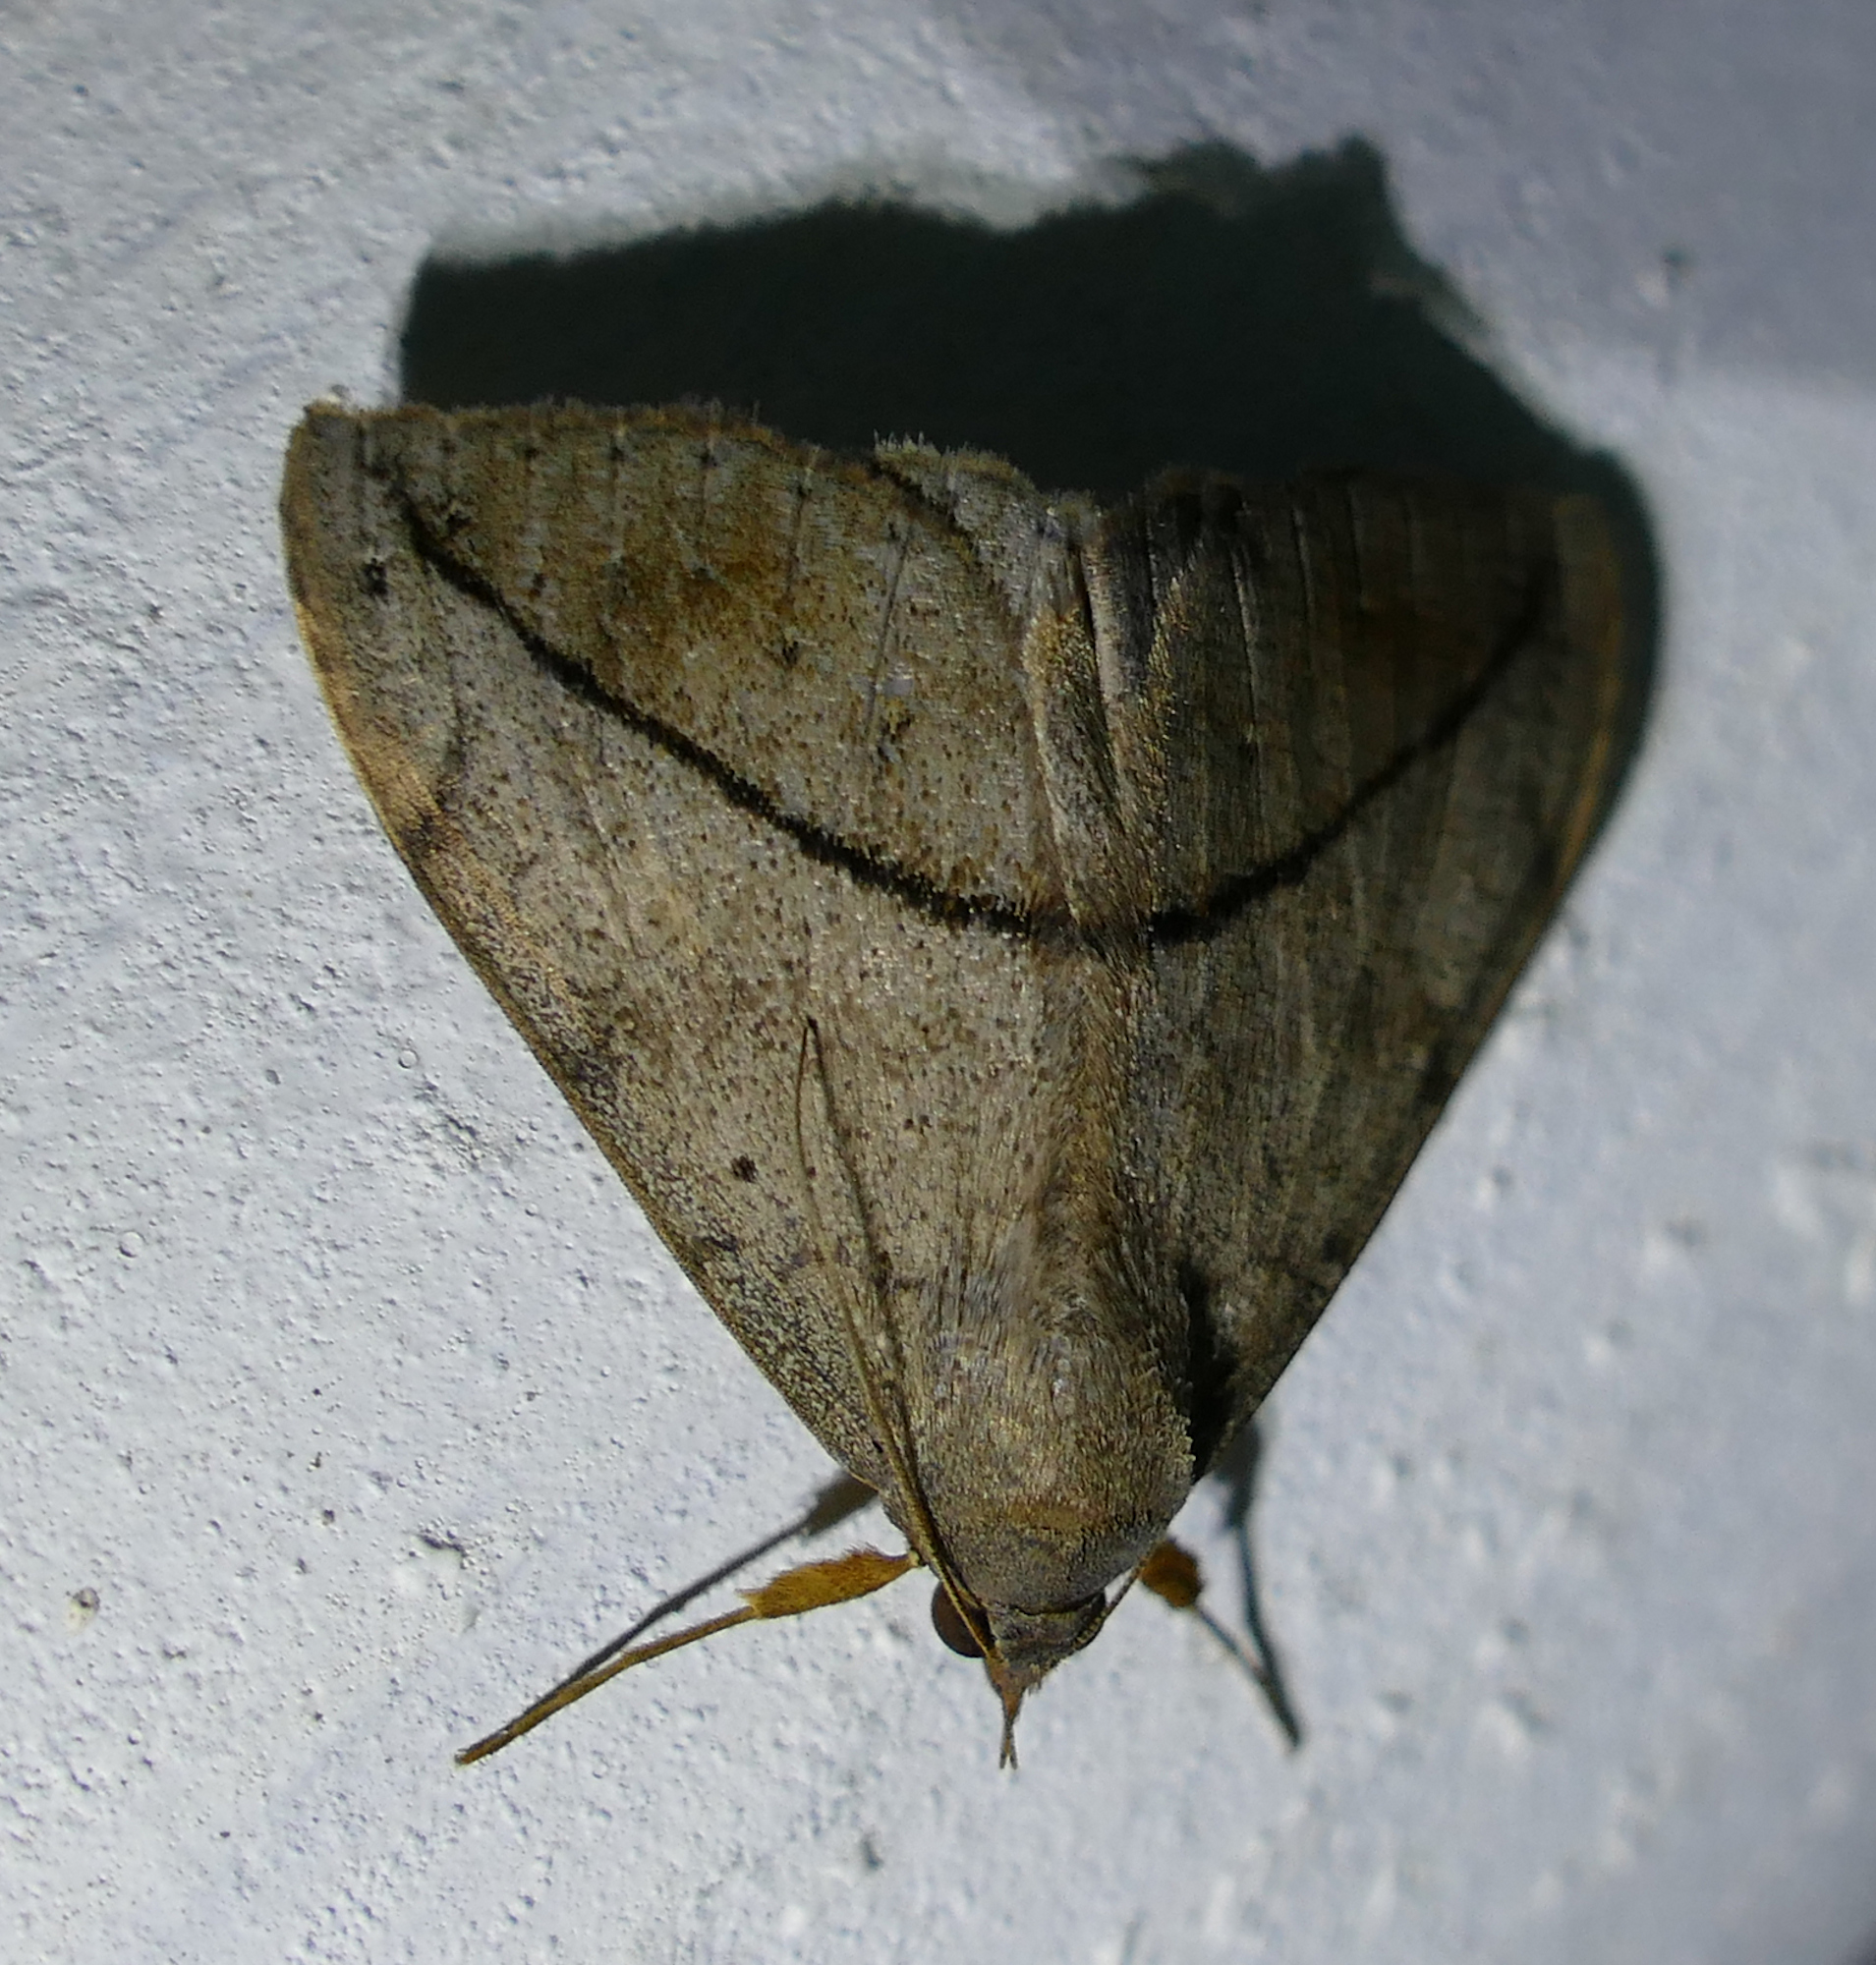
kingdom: Animalia
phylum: Arthropoda
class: Insecta
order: Lepidoptera
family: Erebidae
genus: Anticarsia
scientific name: Anticarsia gemmatalis
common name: Cutworm moth
